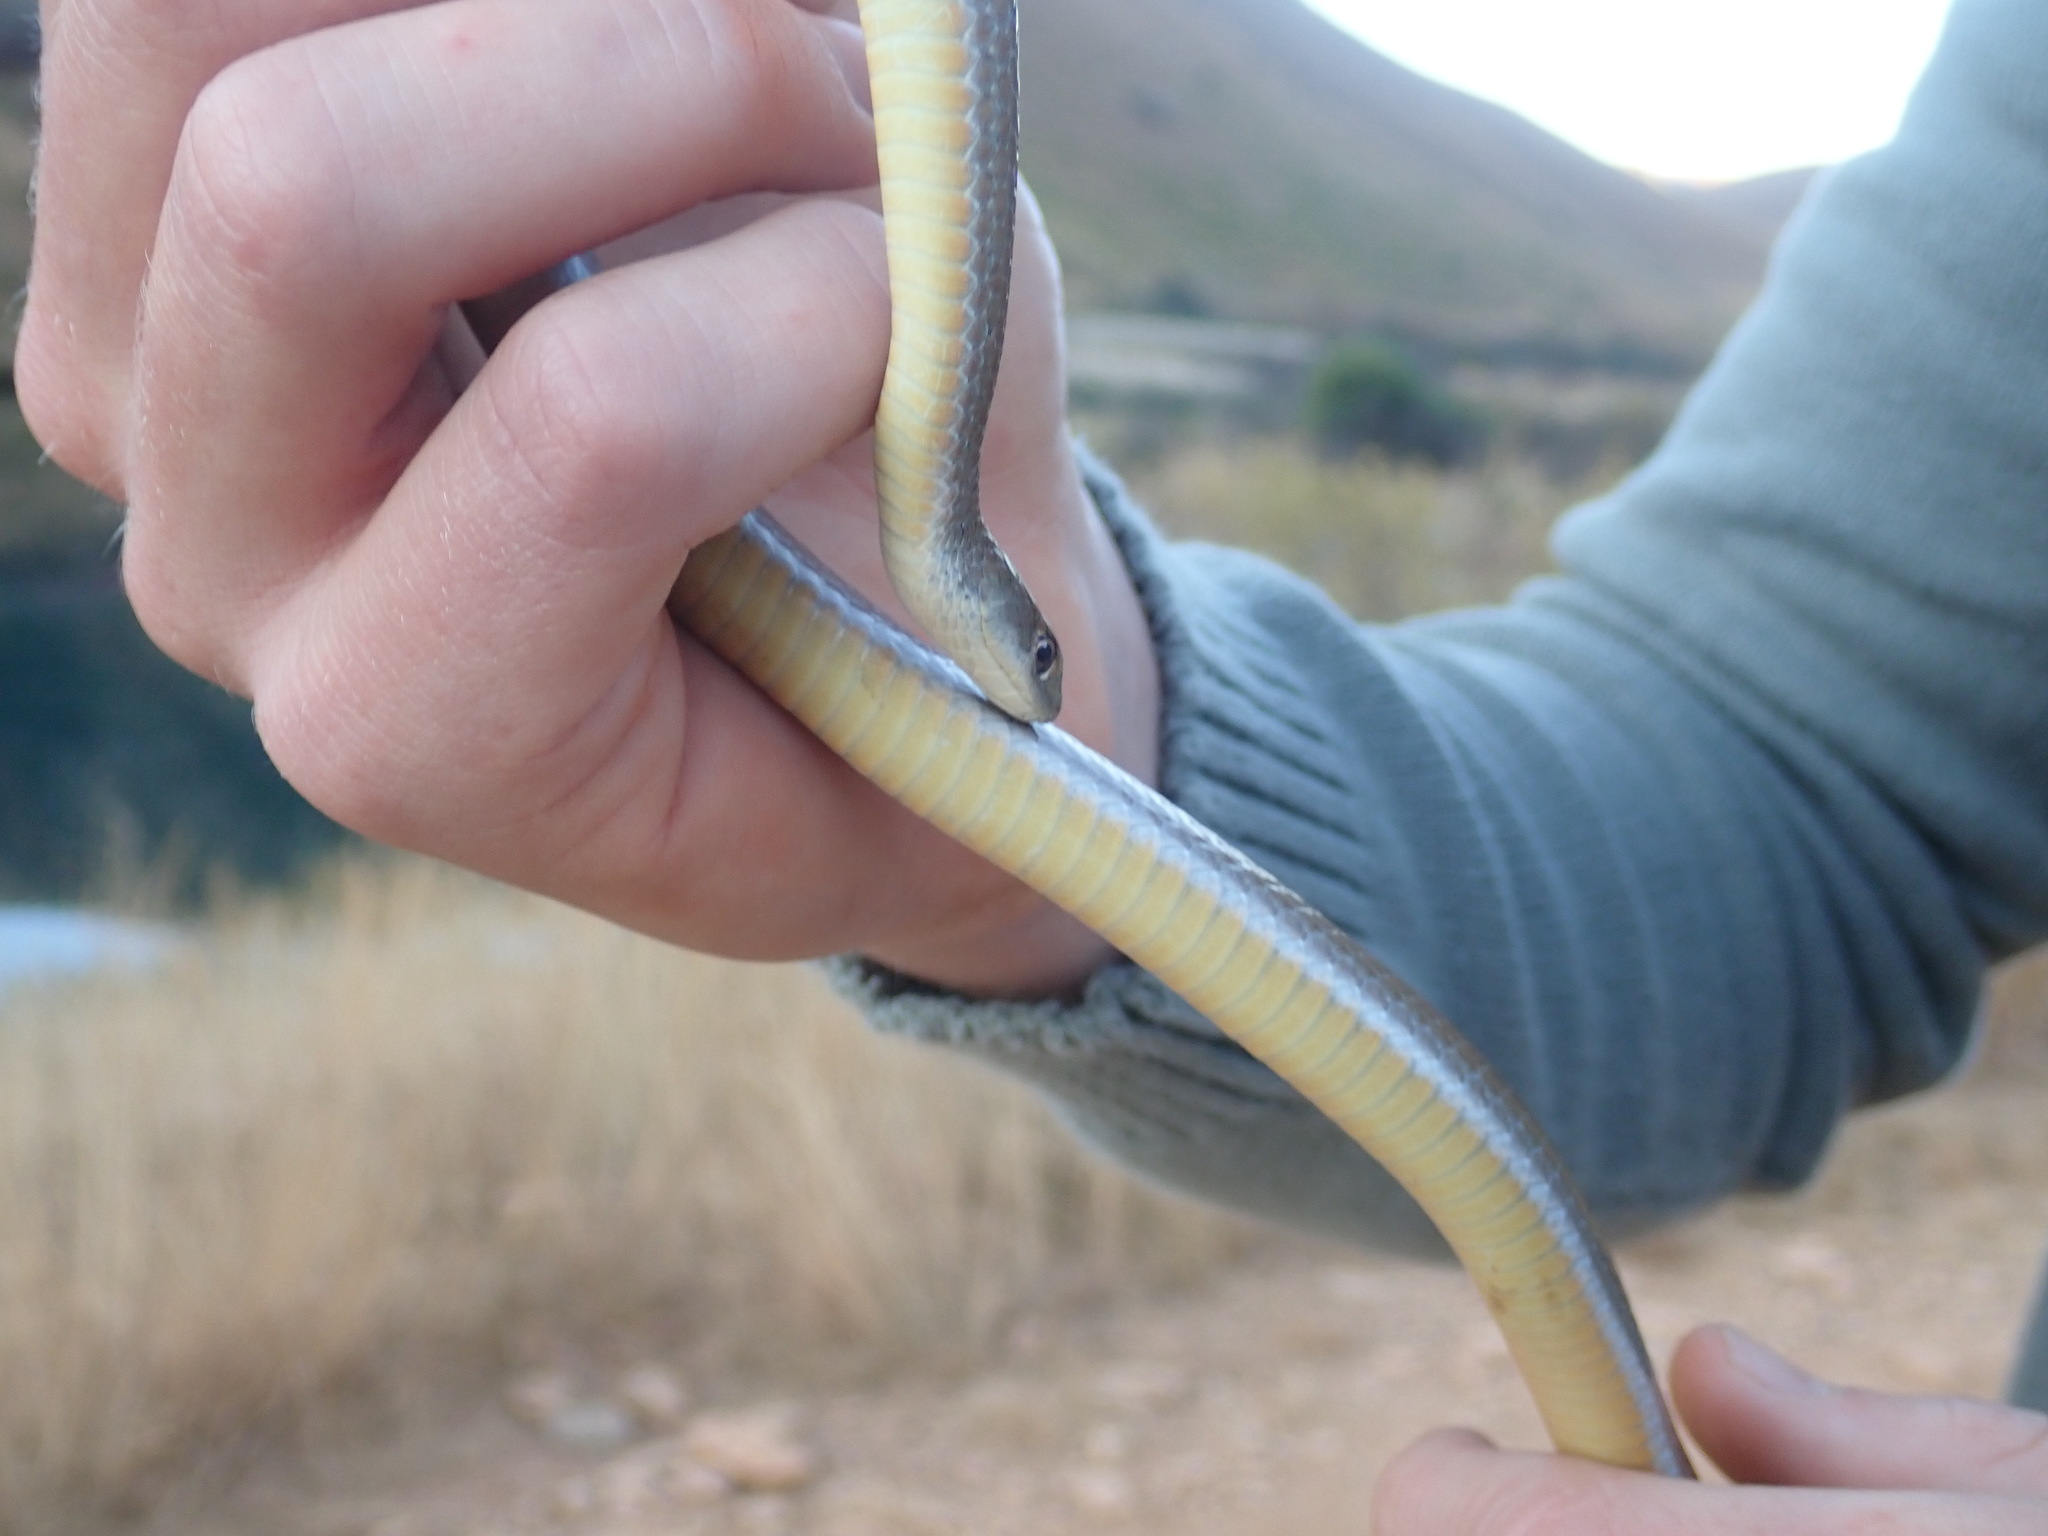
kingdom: Animalia
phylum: Chordata
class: Squamata
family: Psammophiidae
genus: Psammophis
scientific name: Psammophis crucifer
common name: Cross-marked grass snake
